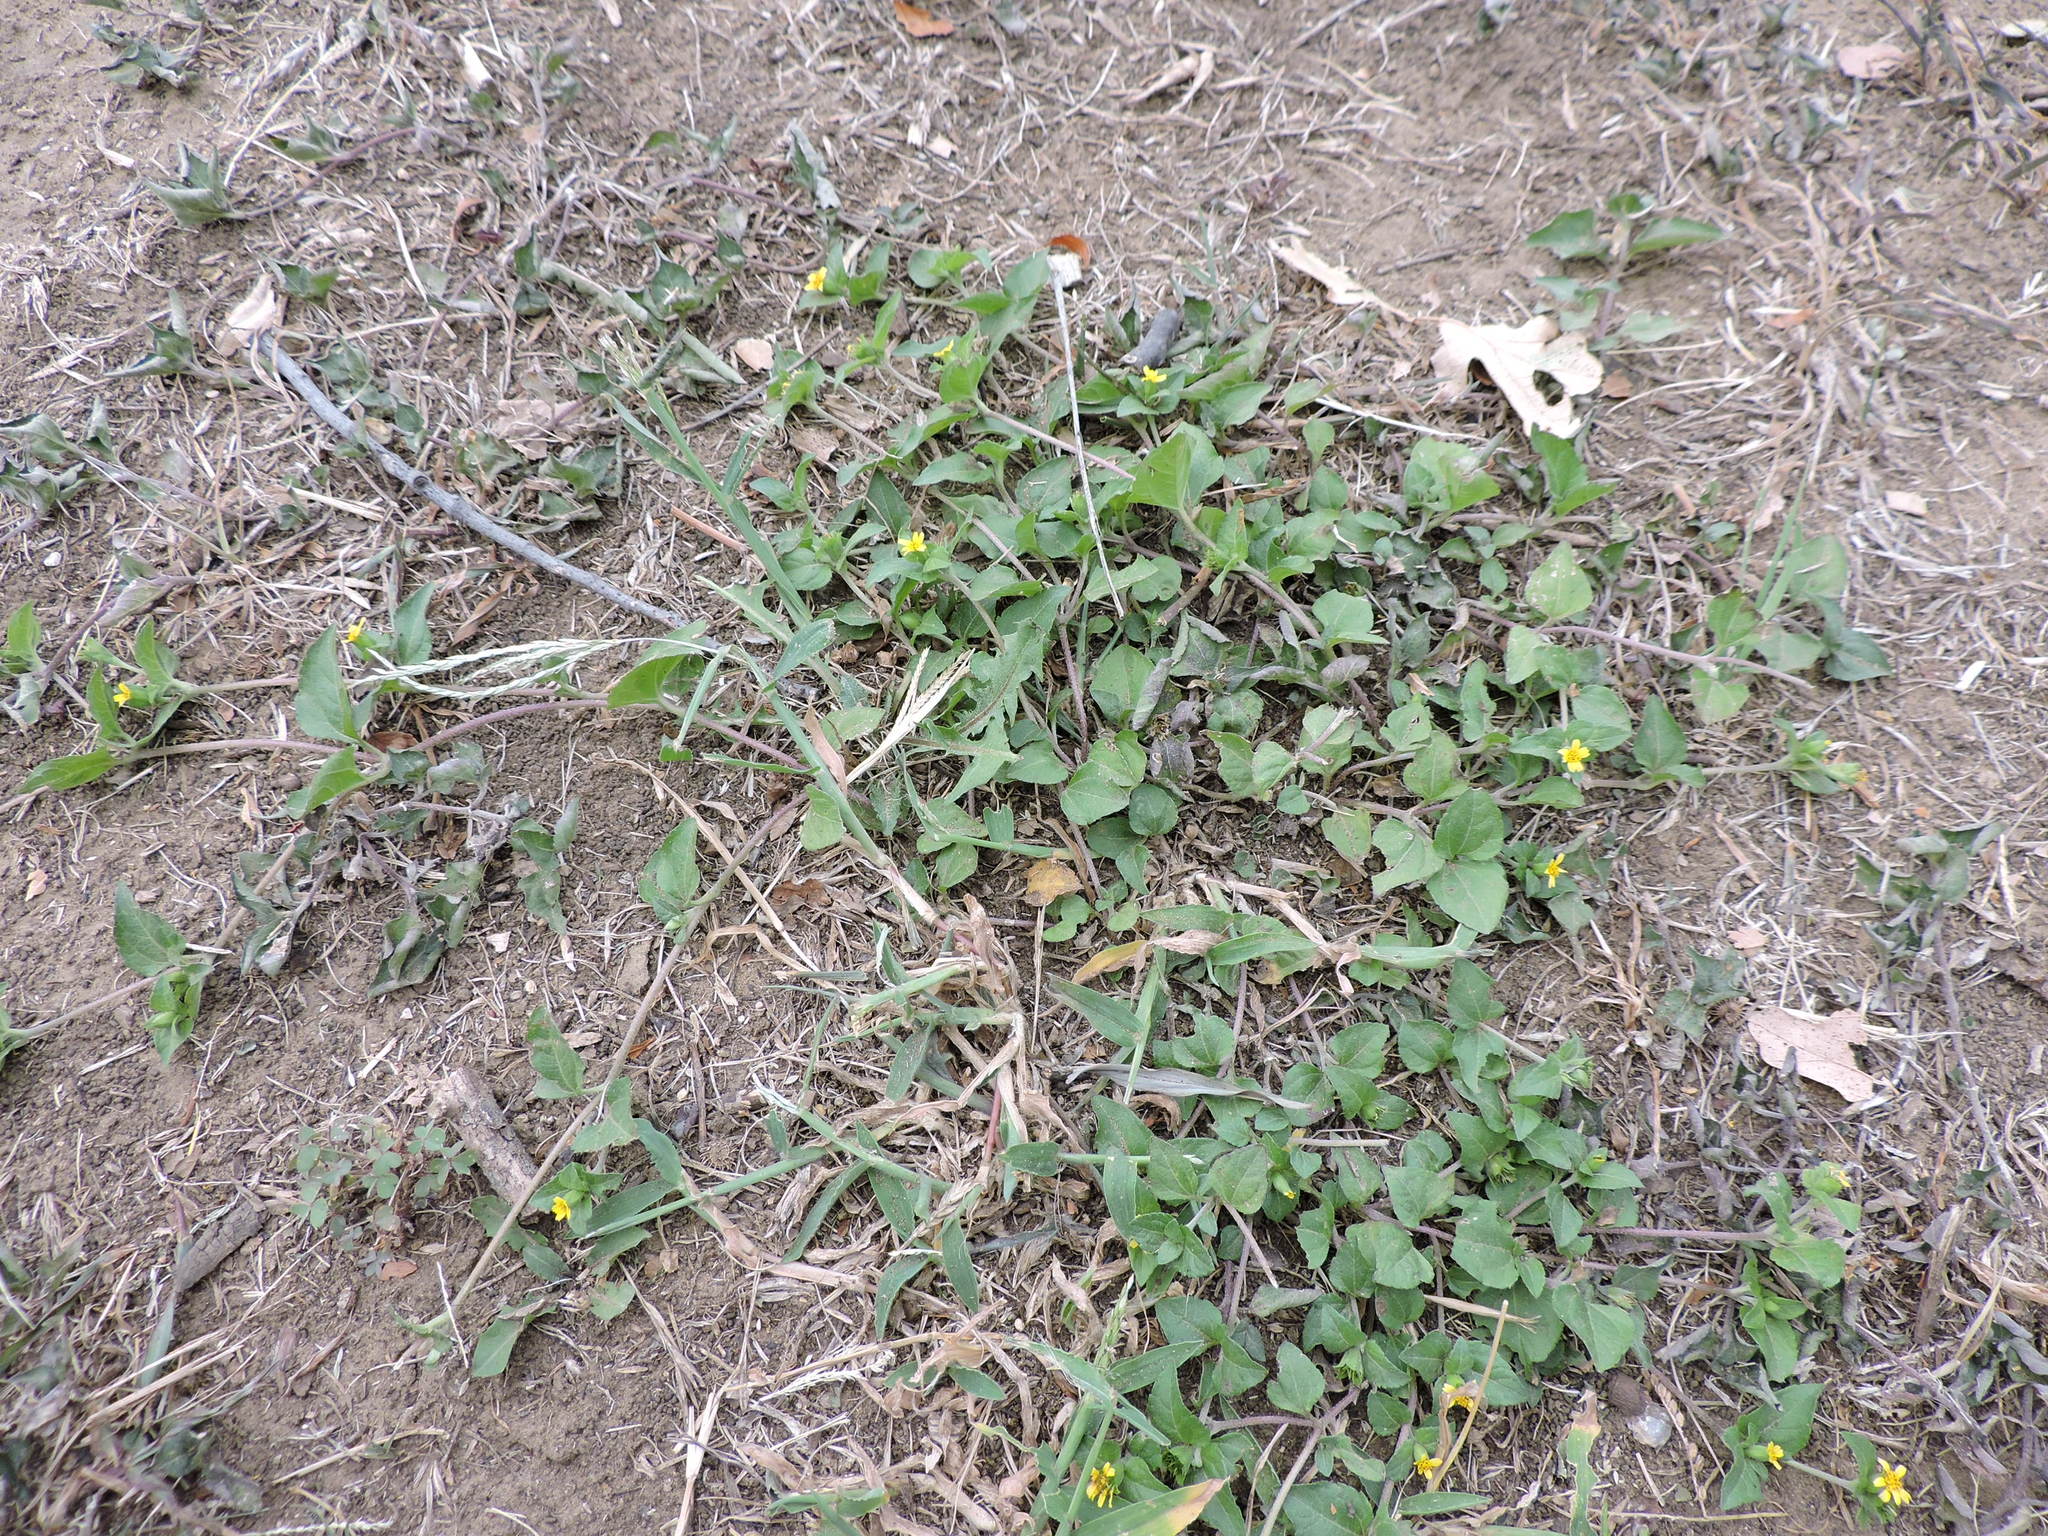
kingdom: Plantae
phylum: Tracheophyta
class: Magnoliopsida
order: Asterales
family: Asteraceae
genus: Calyptocarpus
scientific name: Calyptocarpus vialis
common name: Straggler daisy
